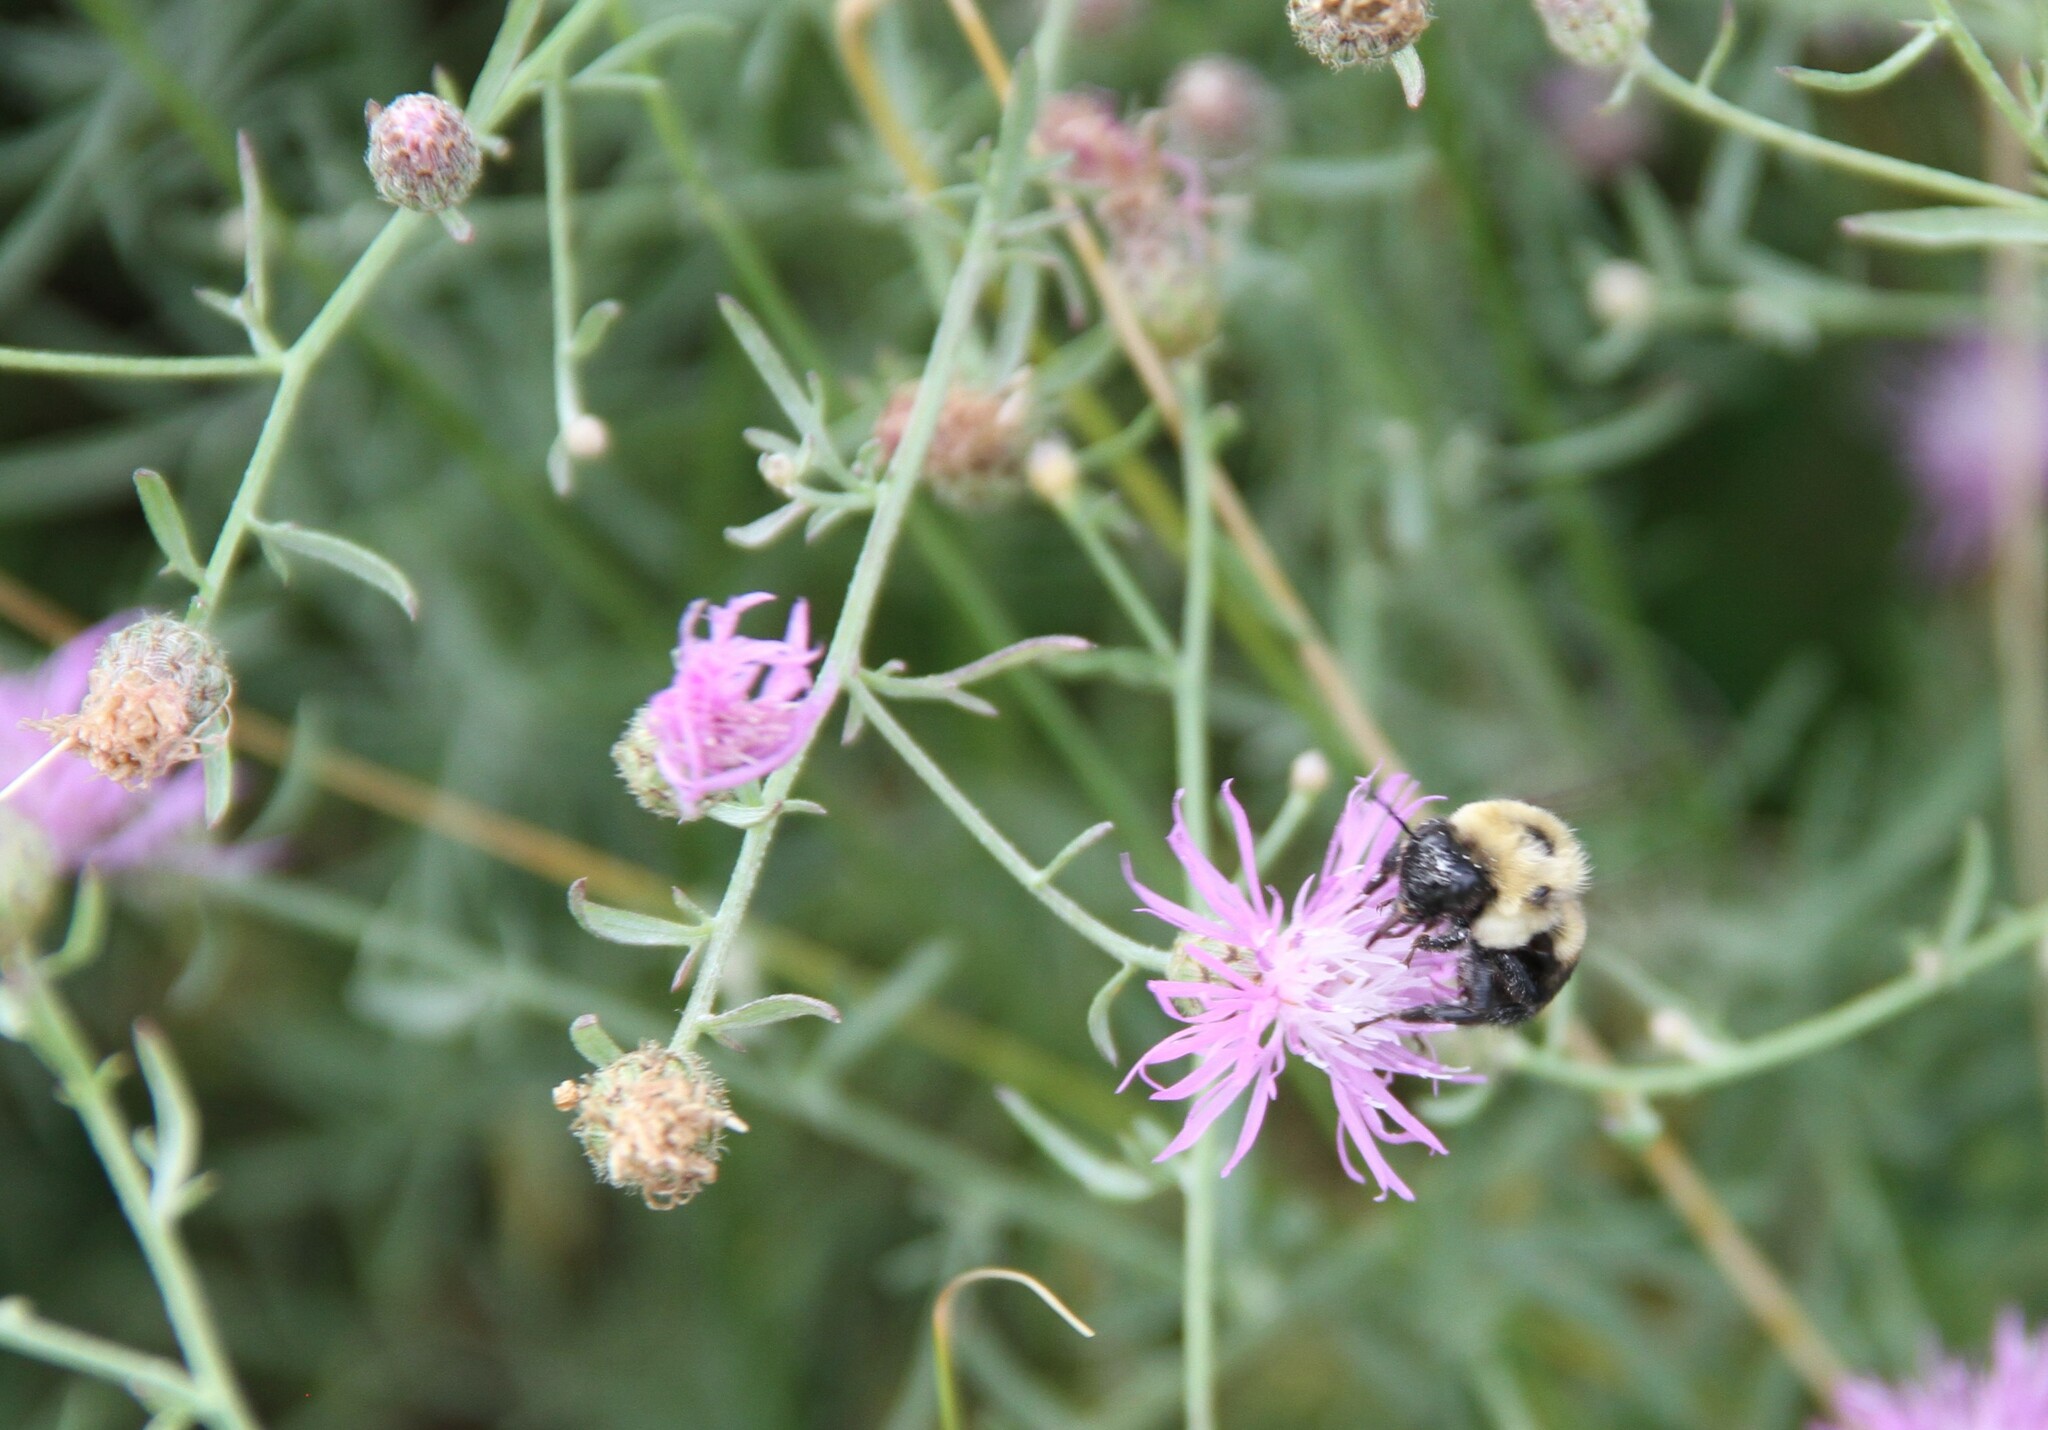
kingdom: Animalia
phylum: Arthropoda
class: Insecta
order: Hymenoptera
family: Apidae
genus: Bombus
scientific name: Bombus impatiens
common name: Common eastern bumble bee
